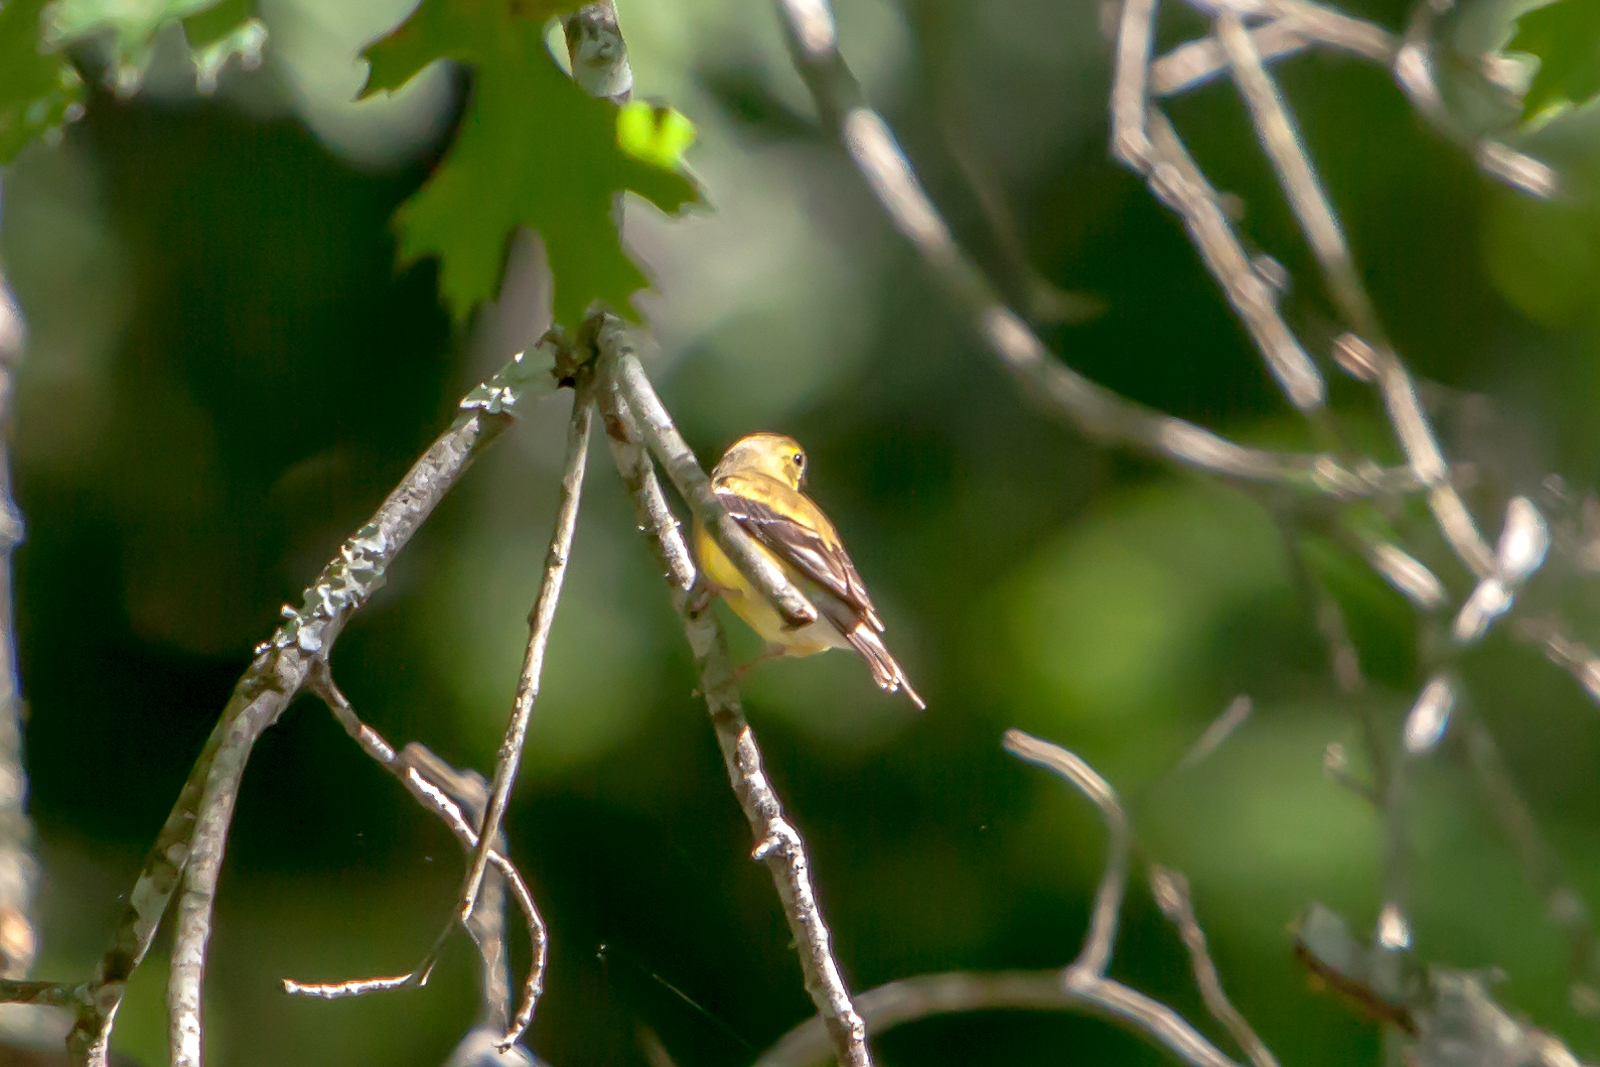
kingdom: Animalia
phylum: Chordata
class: Aves
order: Passeriformes
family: Fringillidae
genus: Spinus
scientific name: Spinus tristis
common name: American goldfinch
